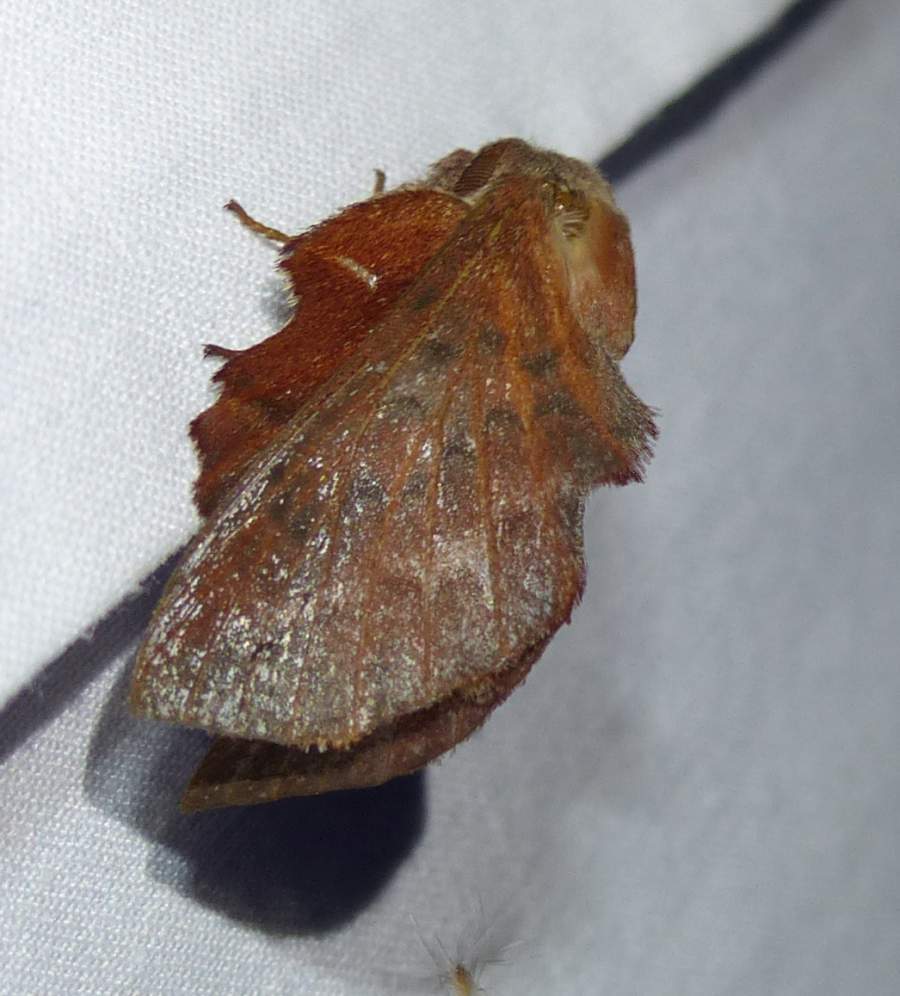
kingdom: Animalia
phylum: Arthropoda
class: Insecta
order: Lepidoptera
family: Lasiocampidae
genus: Phyllodesma
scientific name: Phyllodesma americana
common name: American lappet moth
